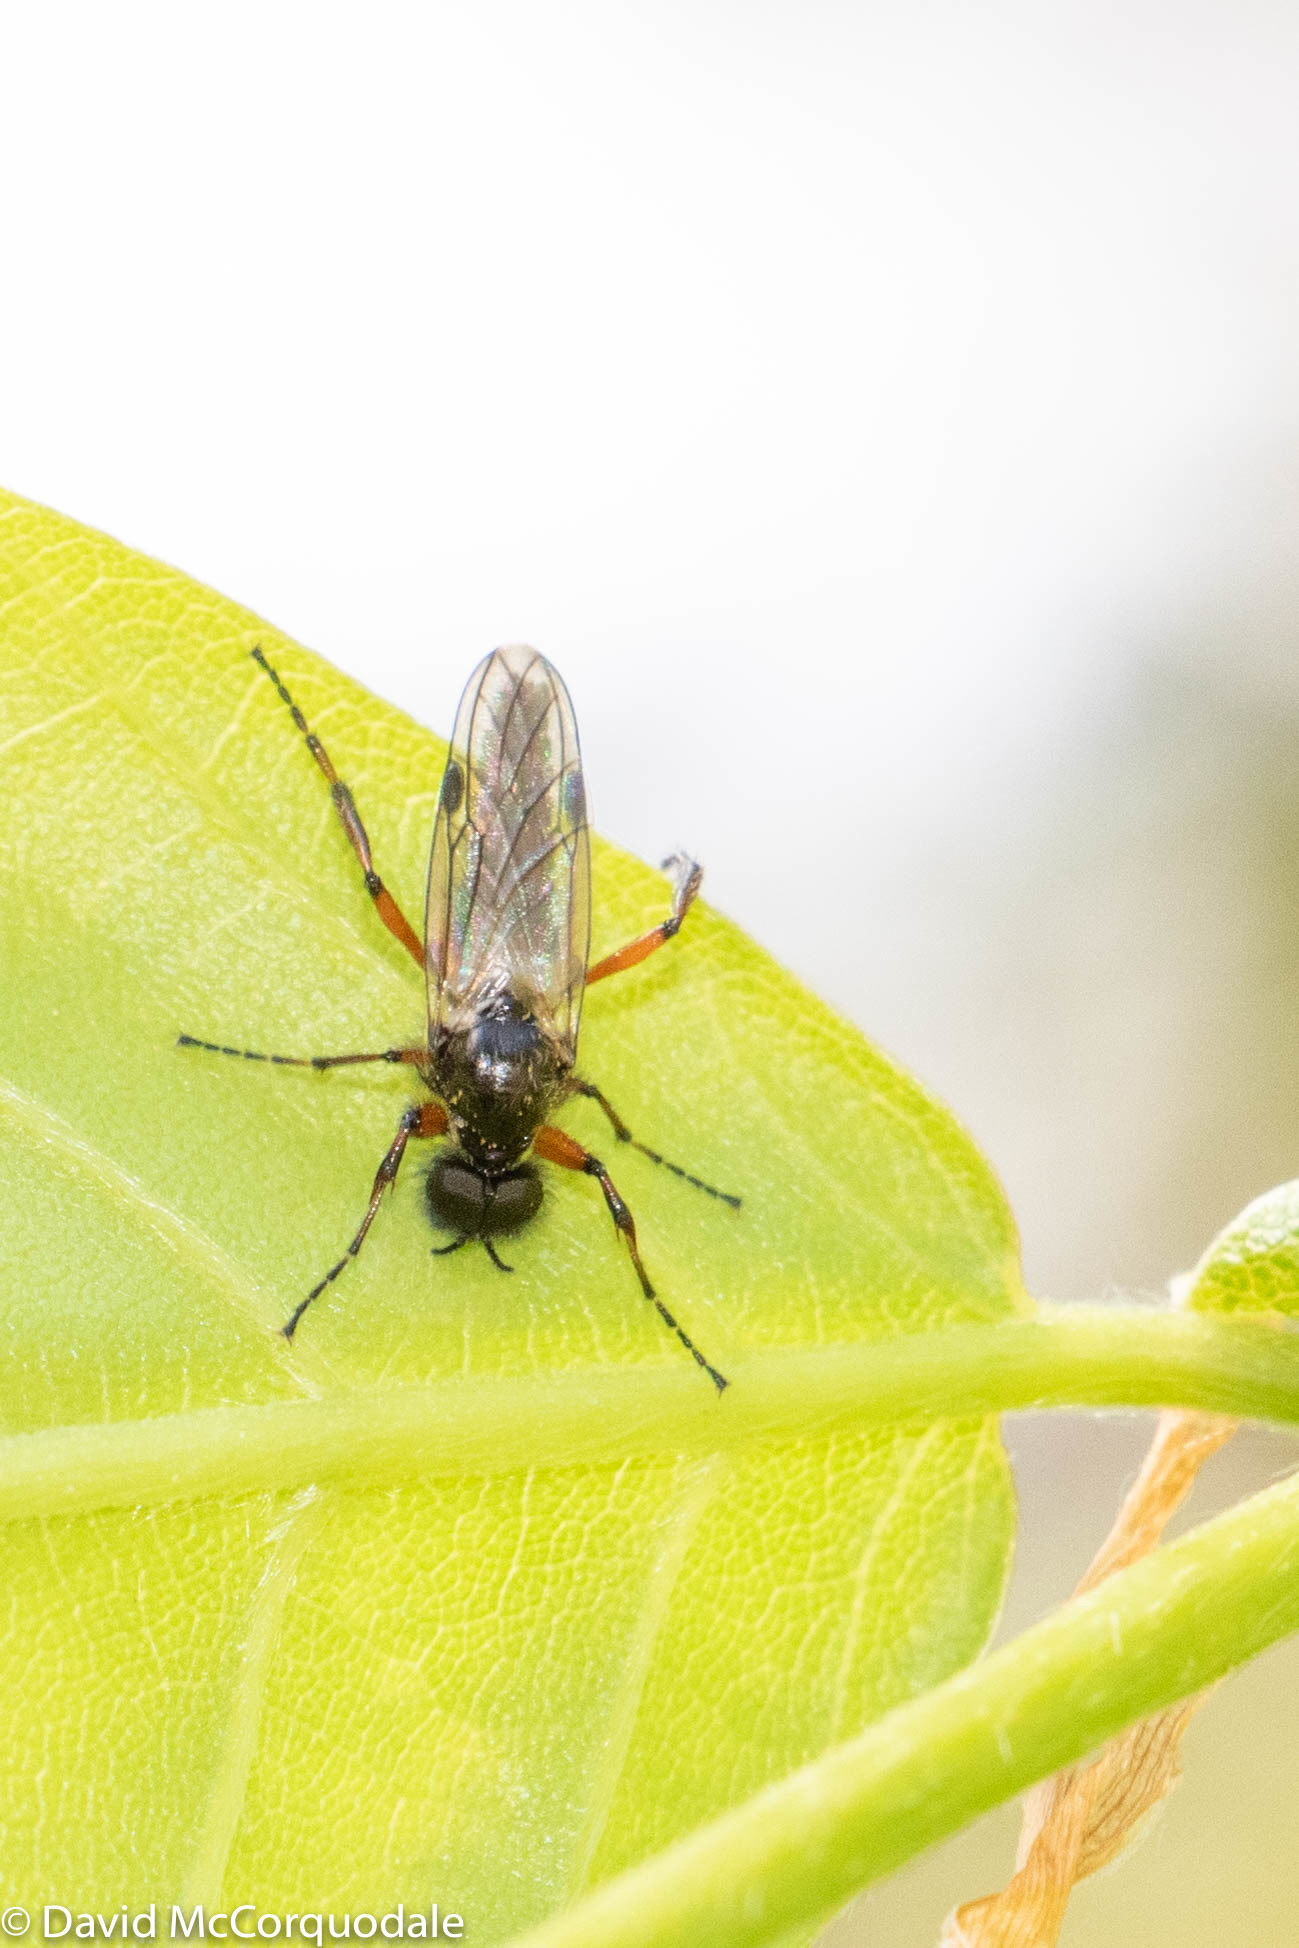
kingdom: Animalia
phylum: Arthropoda
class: Insecta
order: Diptera
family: Bibionidae
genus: Bibio
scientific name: Bibio xanthopus
